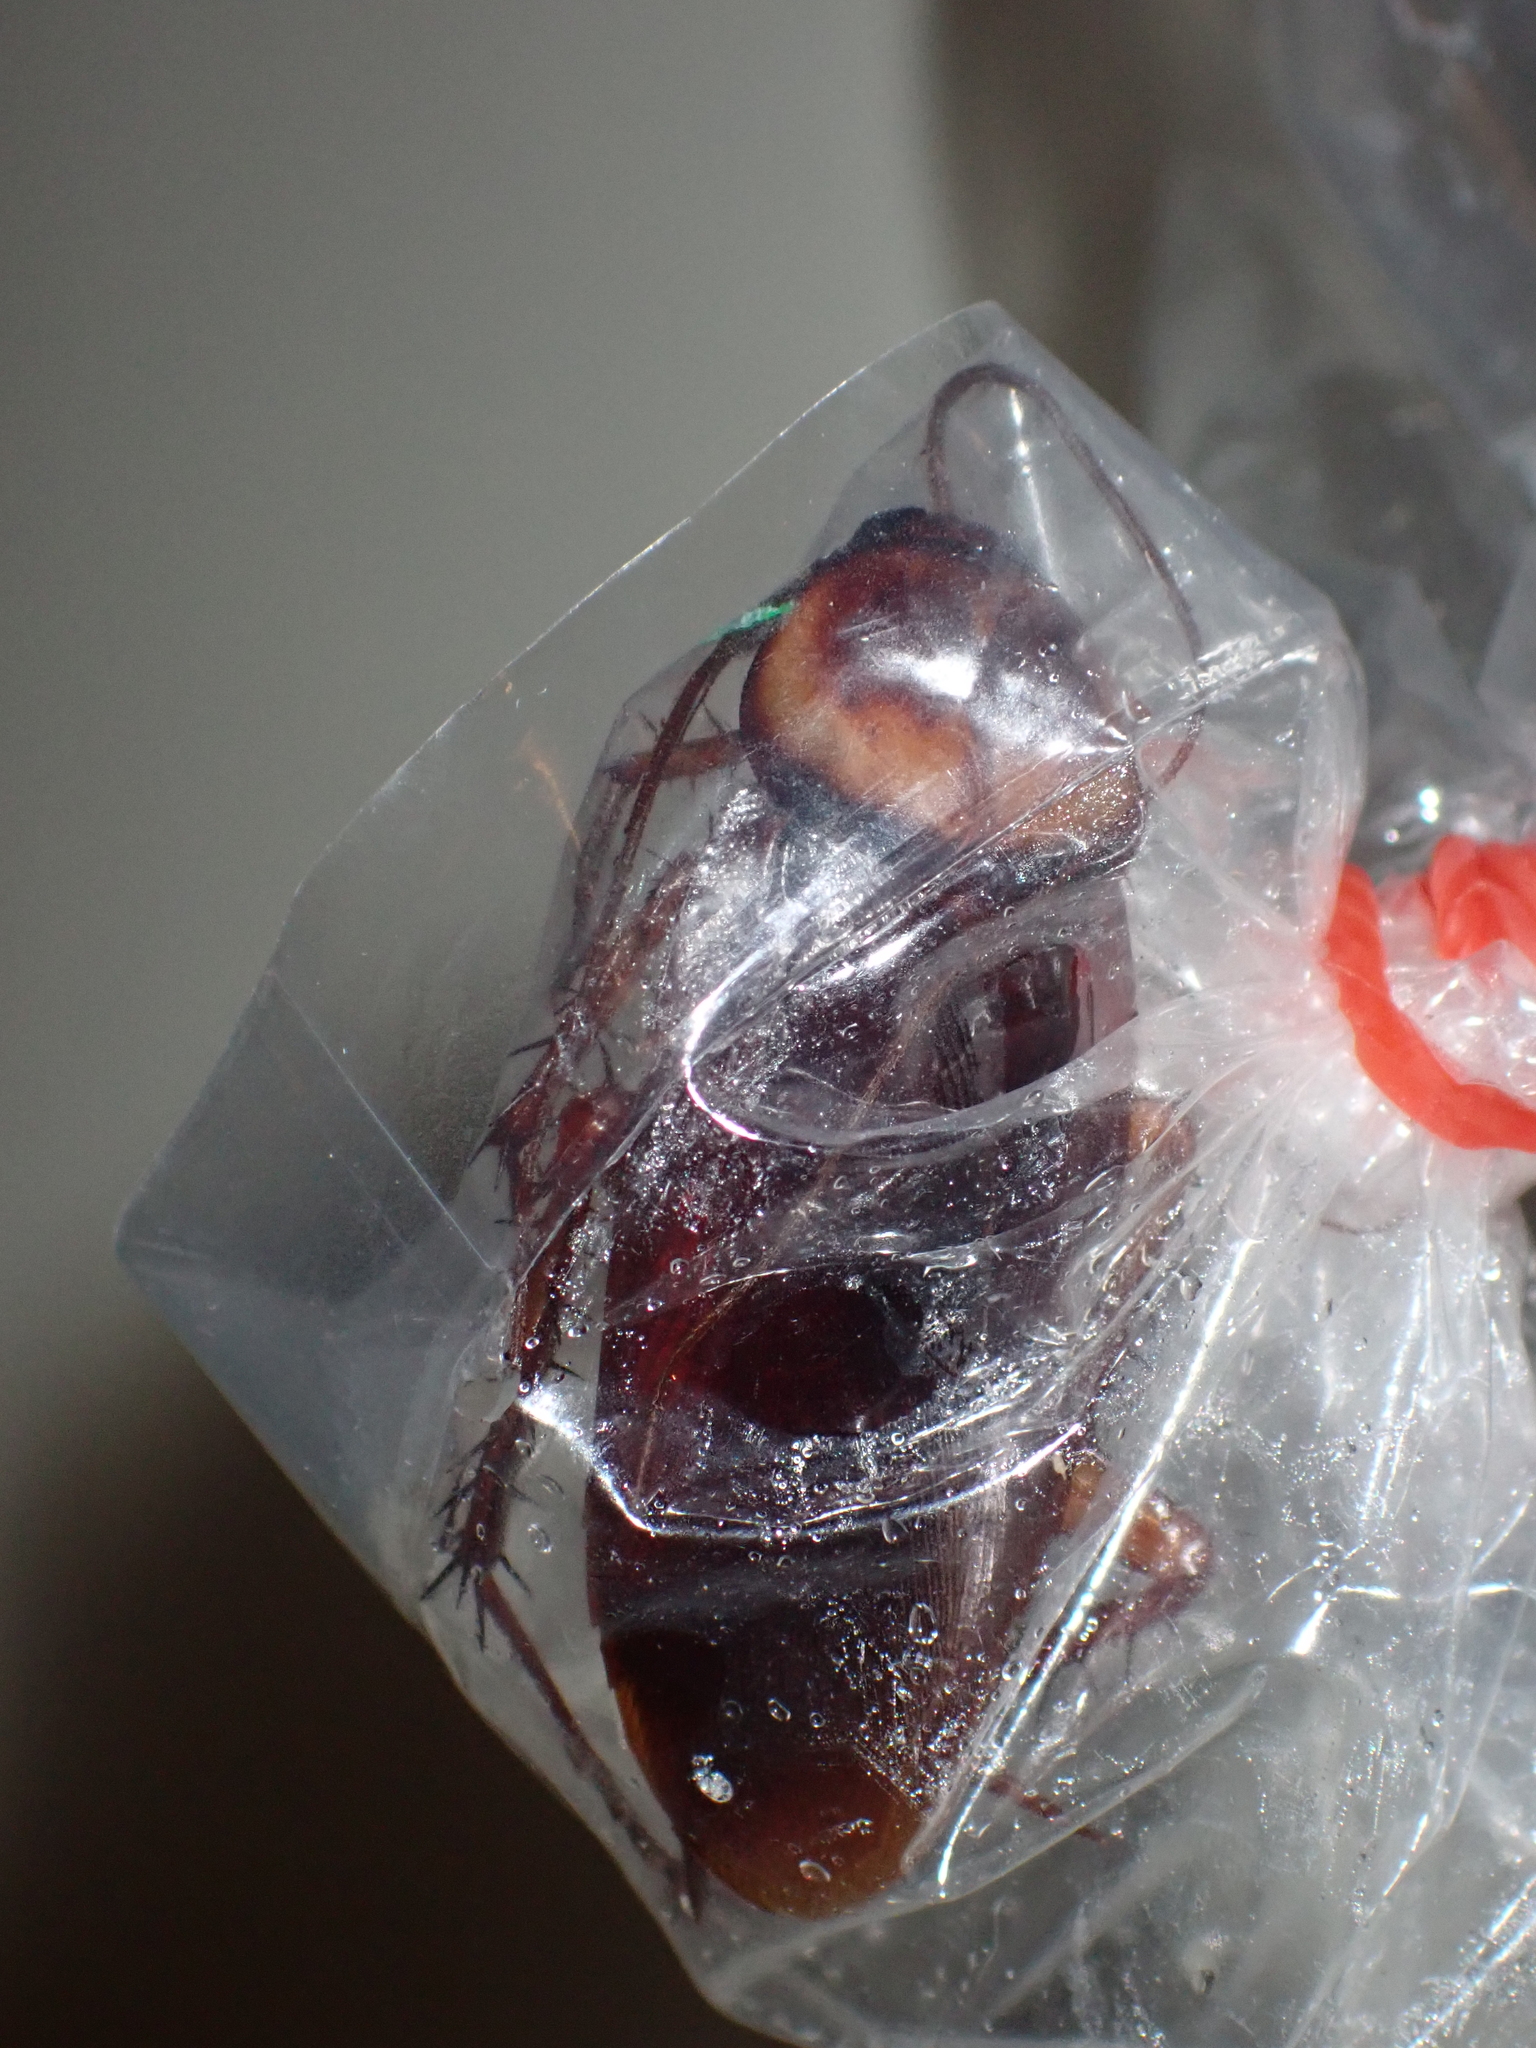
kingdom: Animalia
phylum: Arthropoda
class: Insecta
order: Blattodea
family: Blattidae
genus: Periplaneta
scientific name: Periplaneta americana
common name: American cockroach
